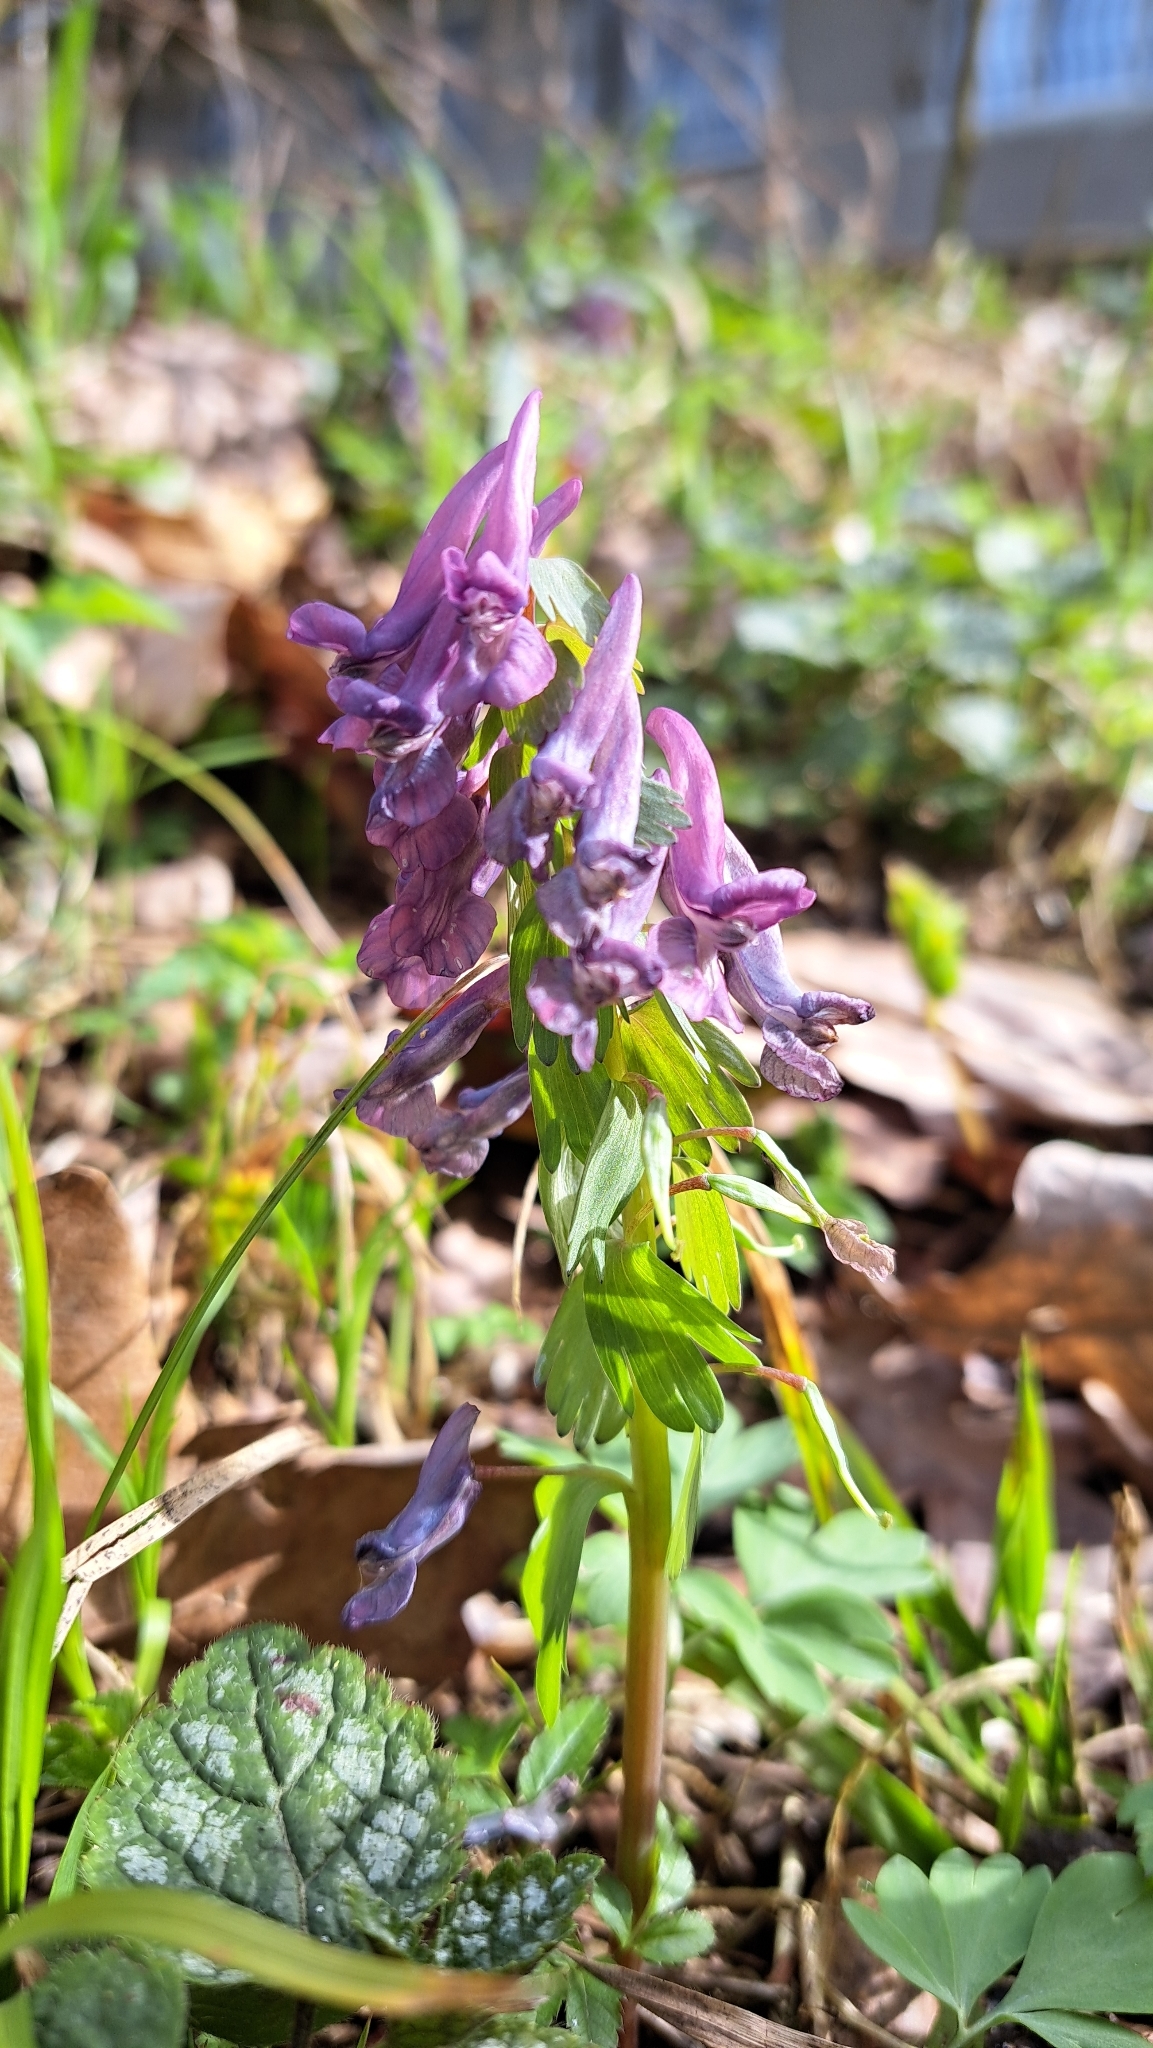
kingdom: Plantae
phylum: Tracheophyta
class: Magnoliopsida
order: Ranunculales
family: Papaveraceae
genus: Corydalis
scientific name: Corydalis solida
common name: Bird-in-a-bush
